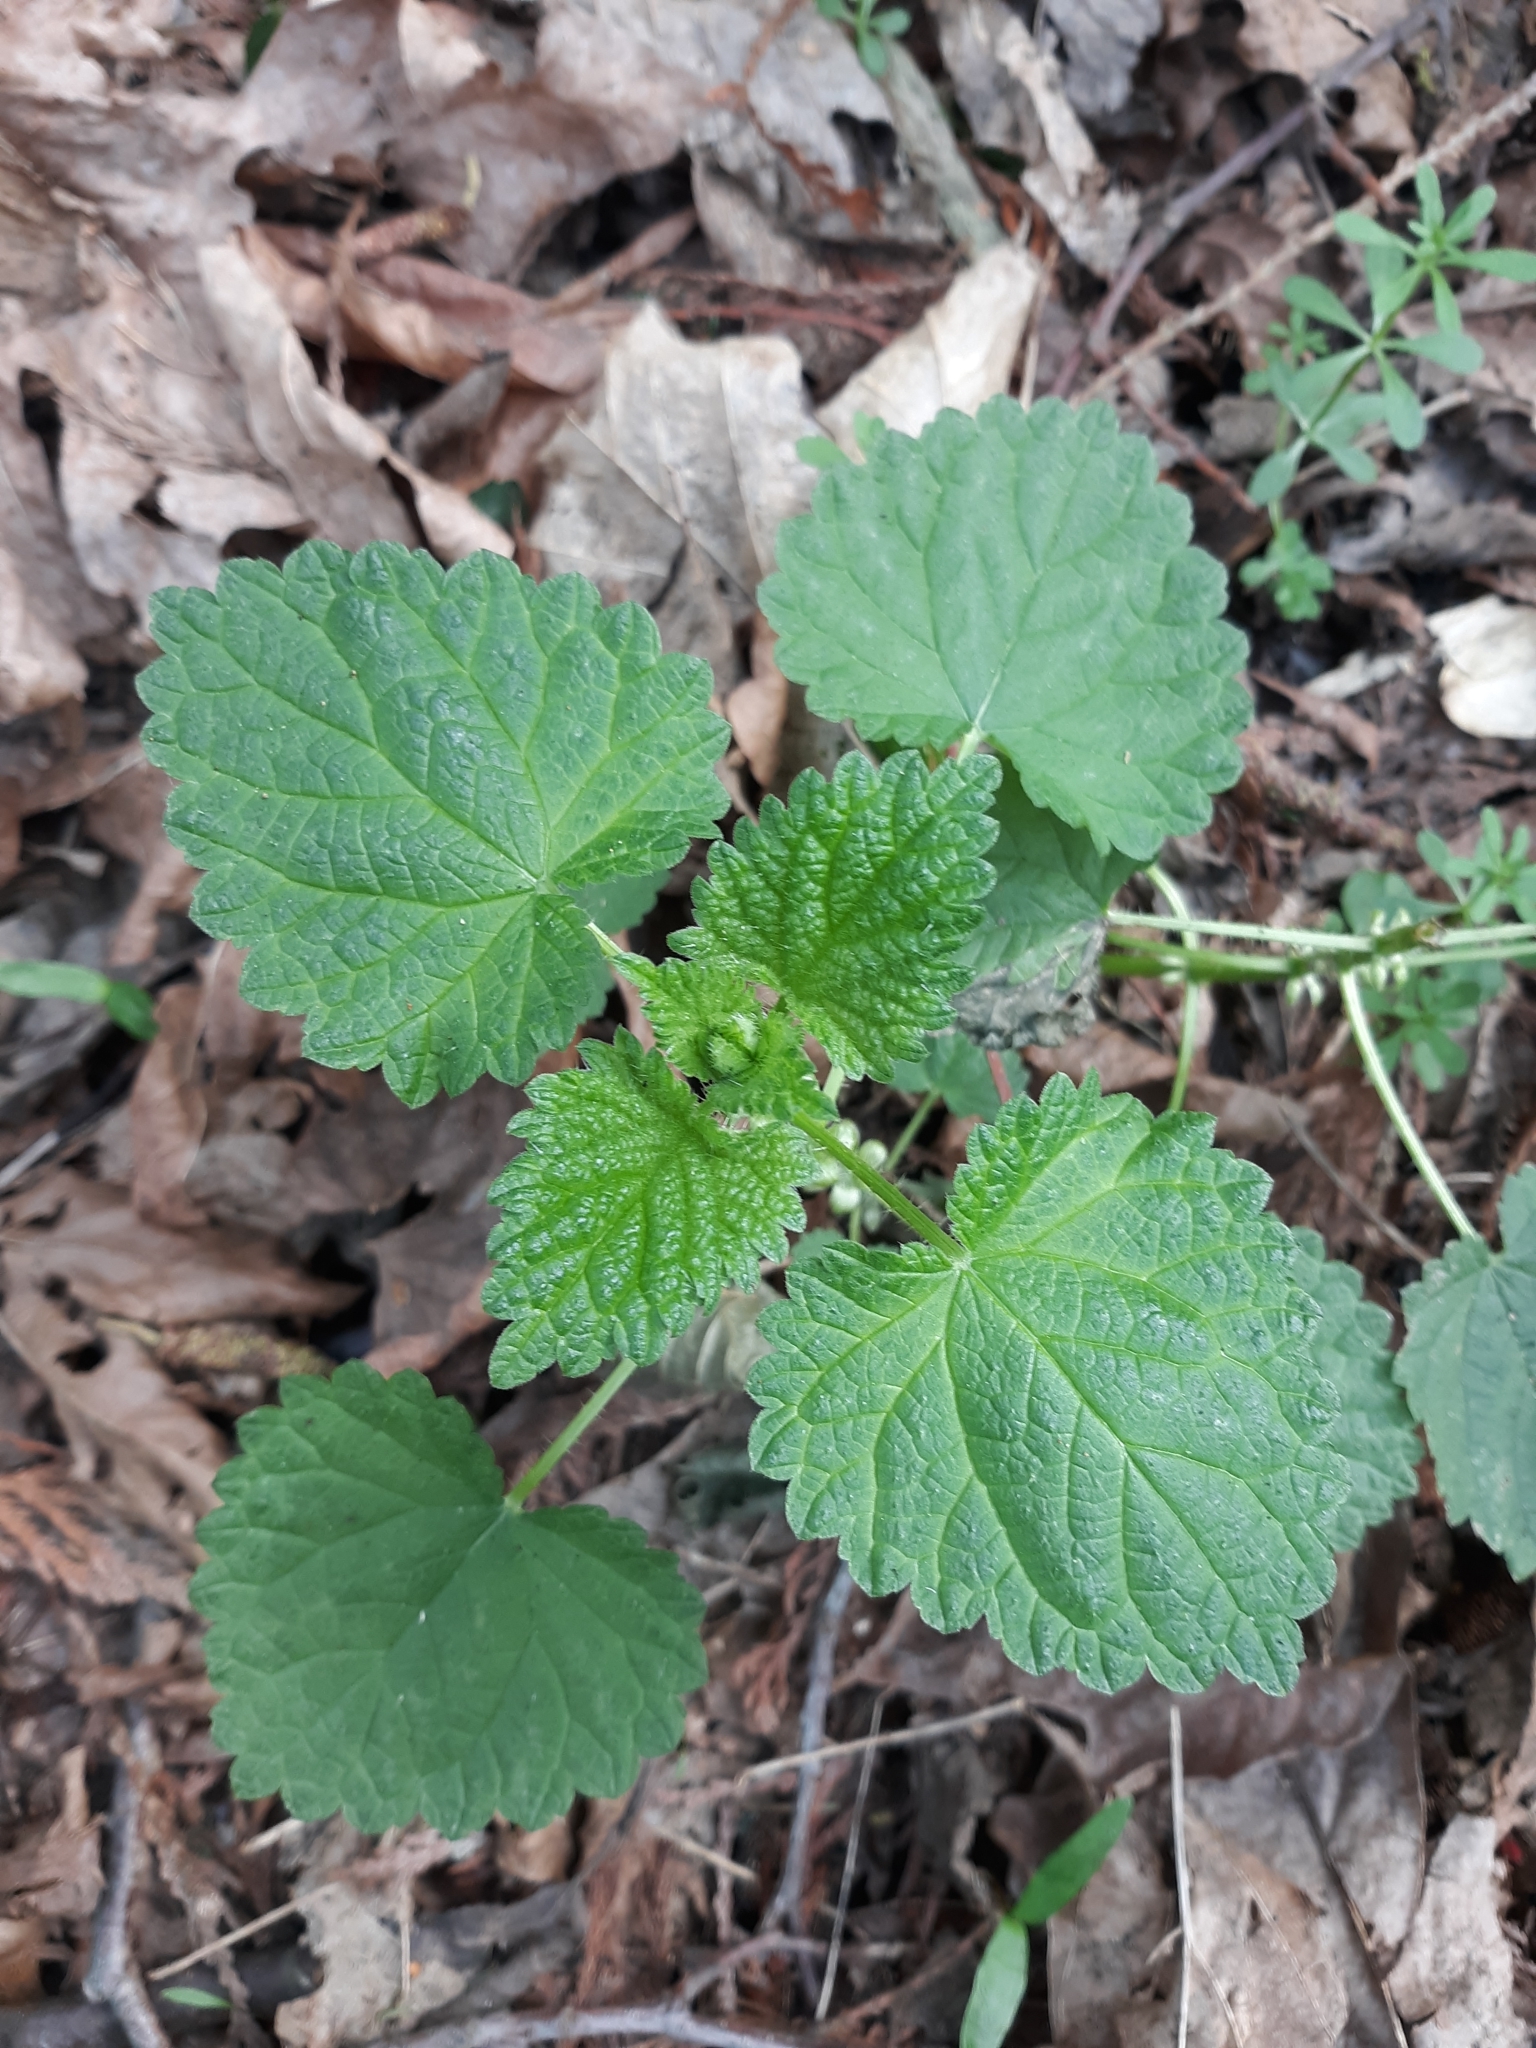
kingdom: Plantae
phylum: Tracheophyta
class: Magnoliopsida
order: Rosales
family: Urticaceae
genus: Urtica
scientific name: Urtica gracilis
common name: Slender stinging nettle
